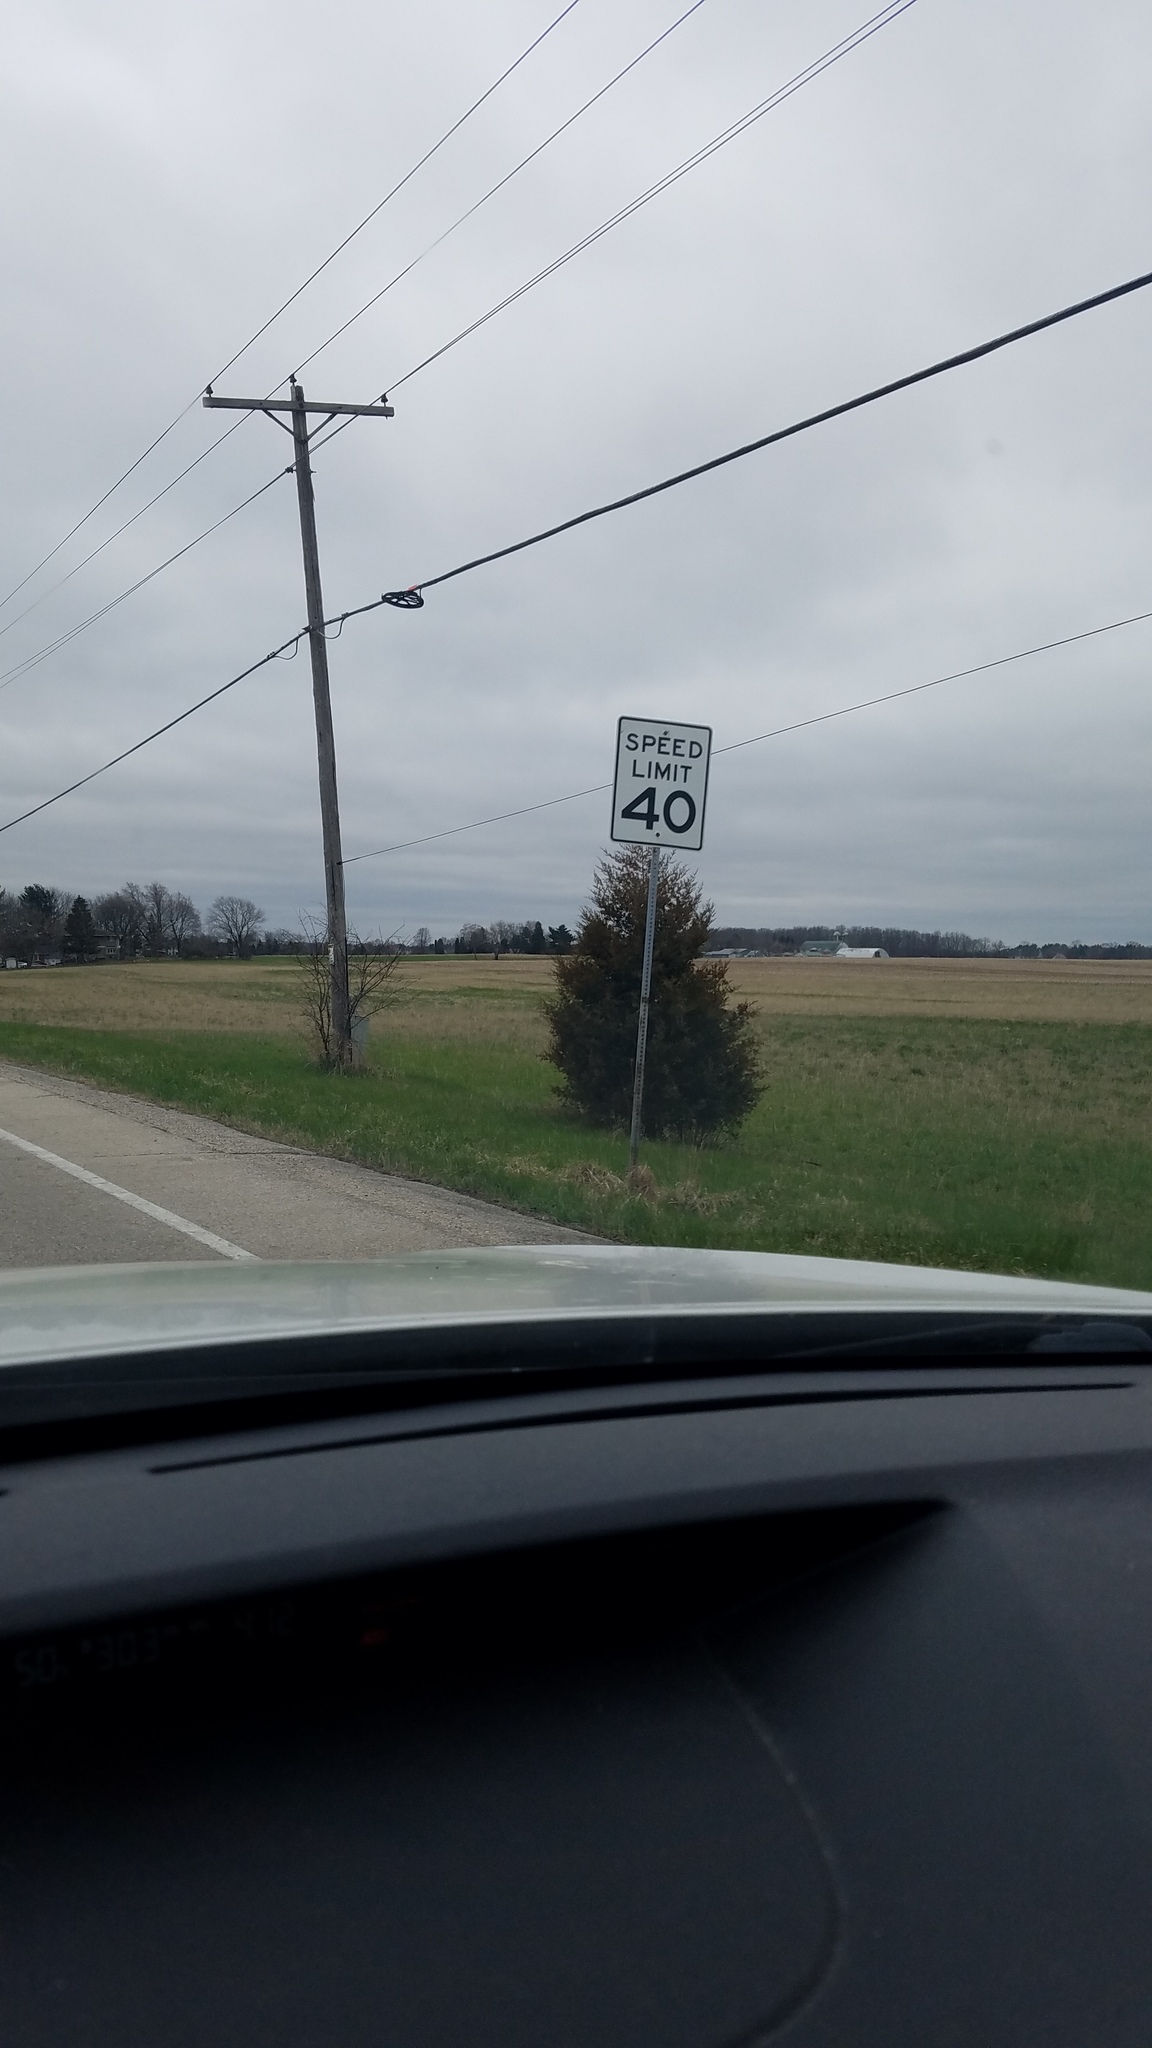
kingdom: Plantae
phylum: Tracheophyta
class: Pinopsida
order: Pinales
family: Cupressaceae
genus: Juniperus
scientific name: Juniperus virginiana
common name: Red juniper
